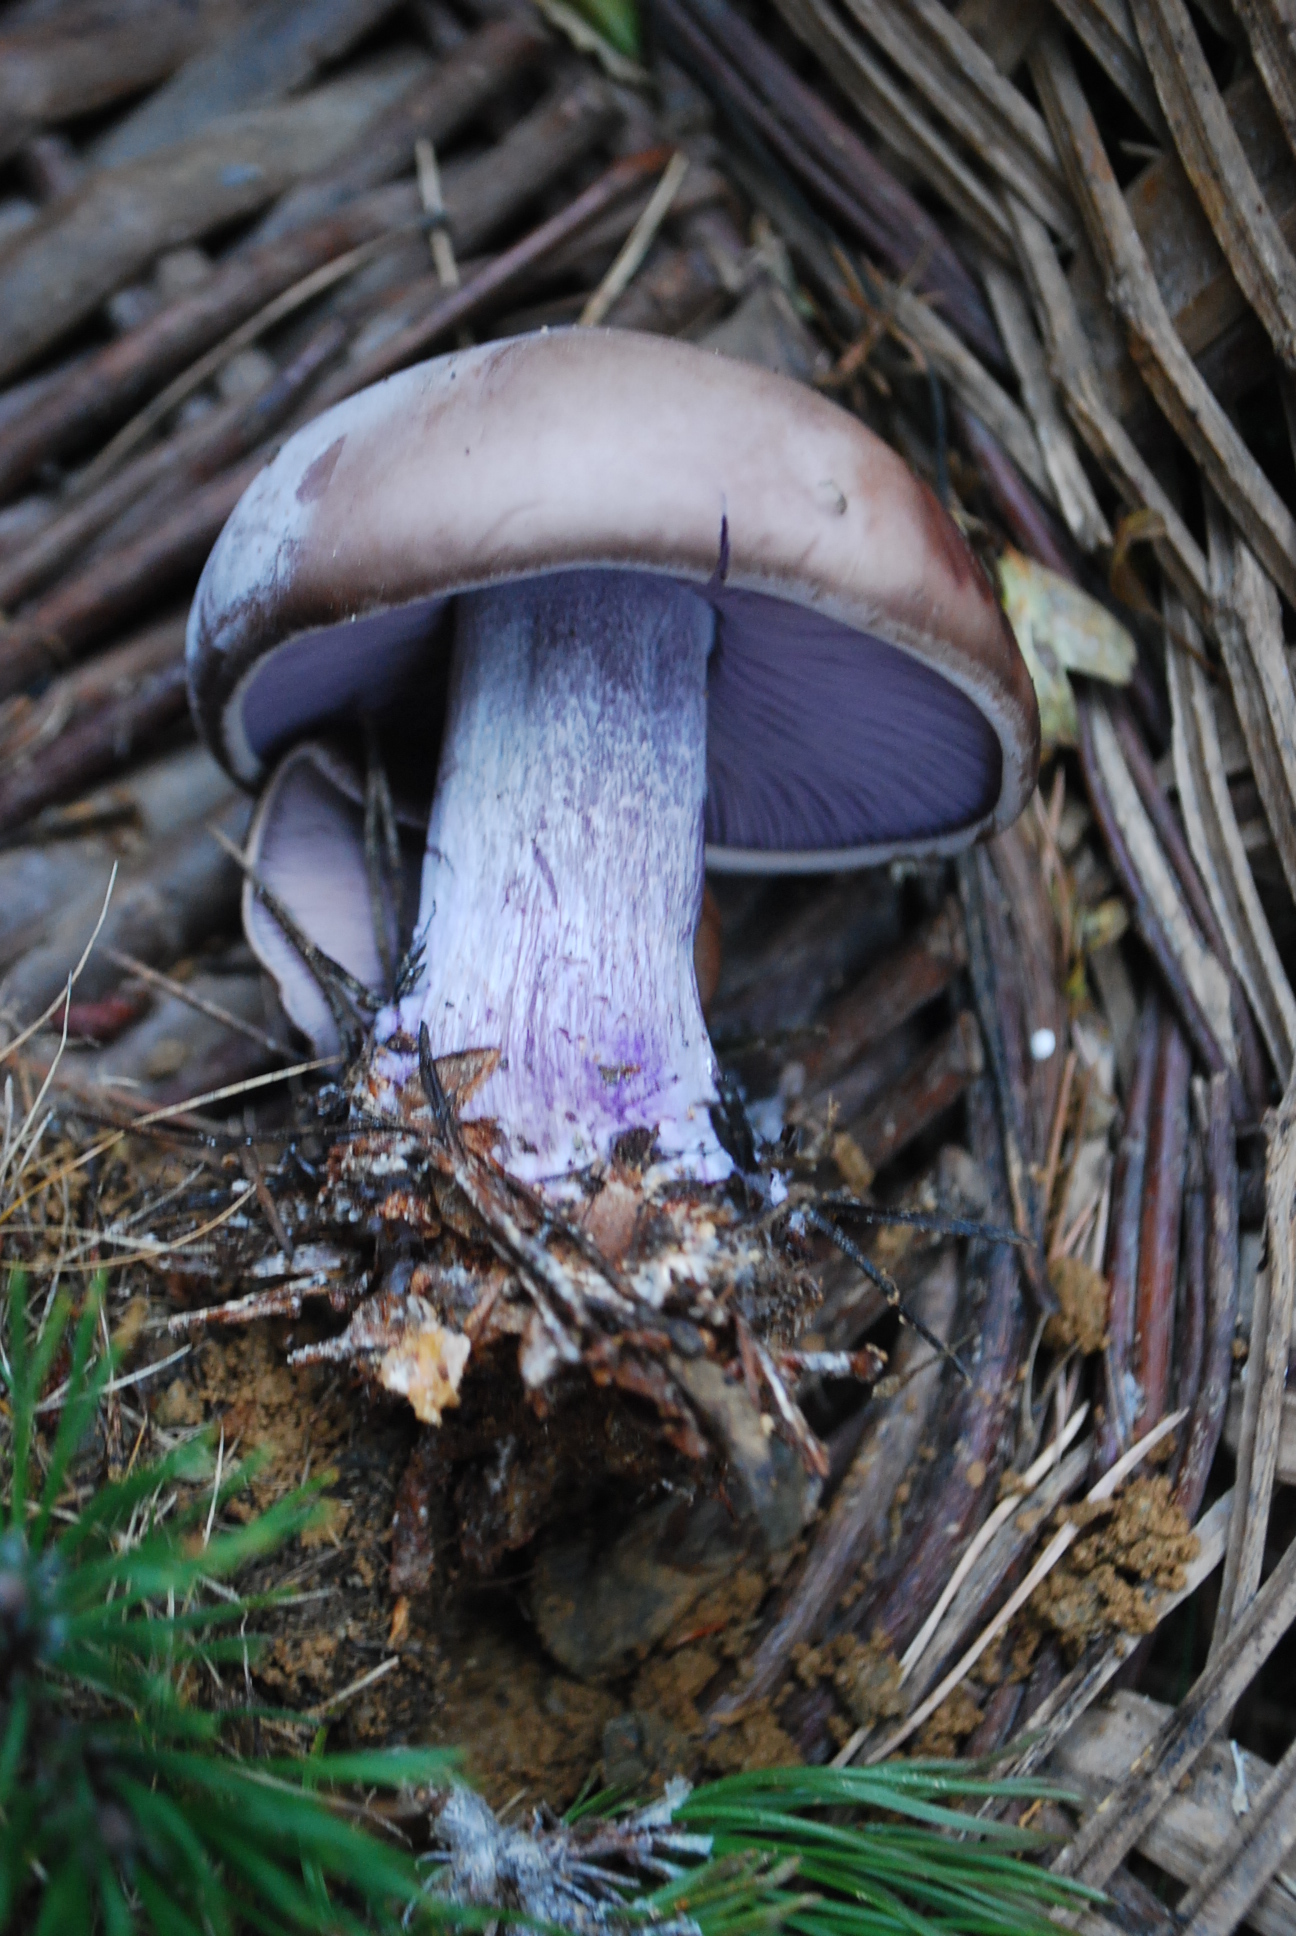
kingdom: Fungi
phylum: Basidiomycota
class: Agaricomycetes
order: Agaricales
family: Tricholomataceae
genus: Collybia
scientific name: Collybia
